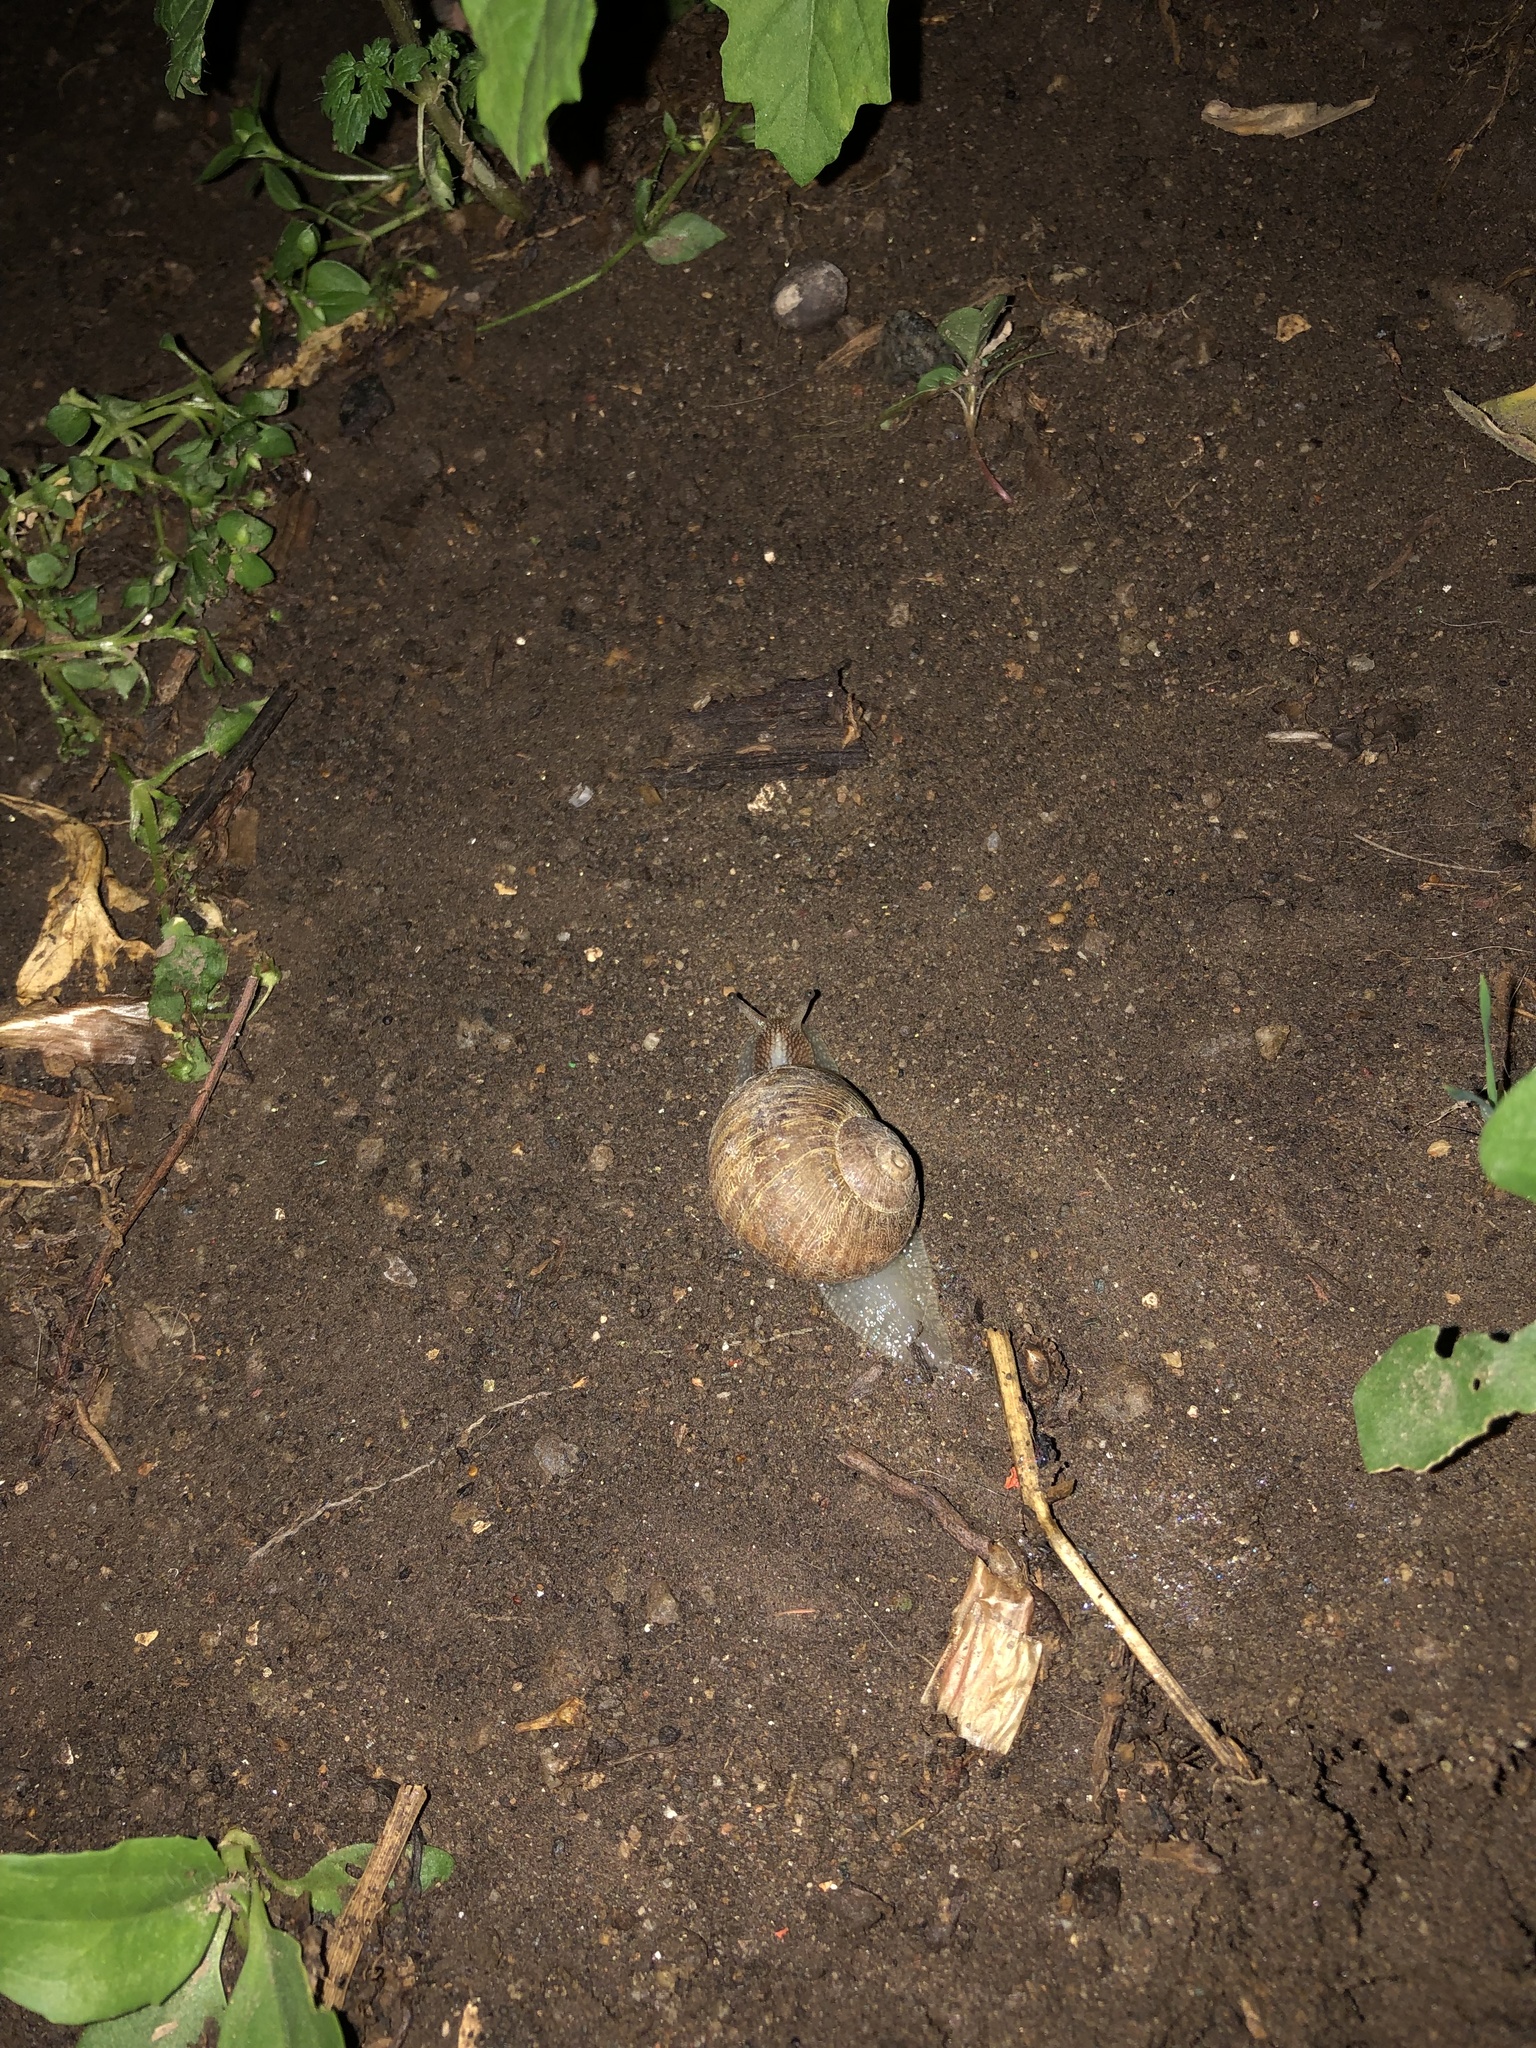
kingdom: Animalia
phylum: Mollusca
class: Gastropoda
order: Stylommatophora
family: Helicidae
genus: Cornu
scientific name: Cornu aspersum
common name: Brown garden snail
